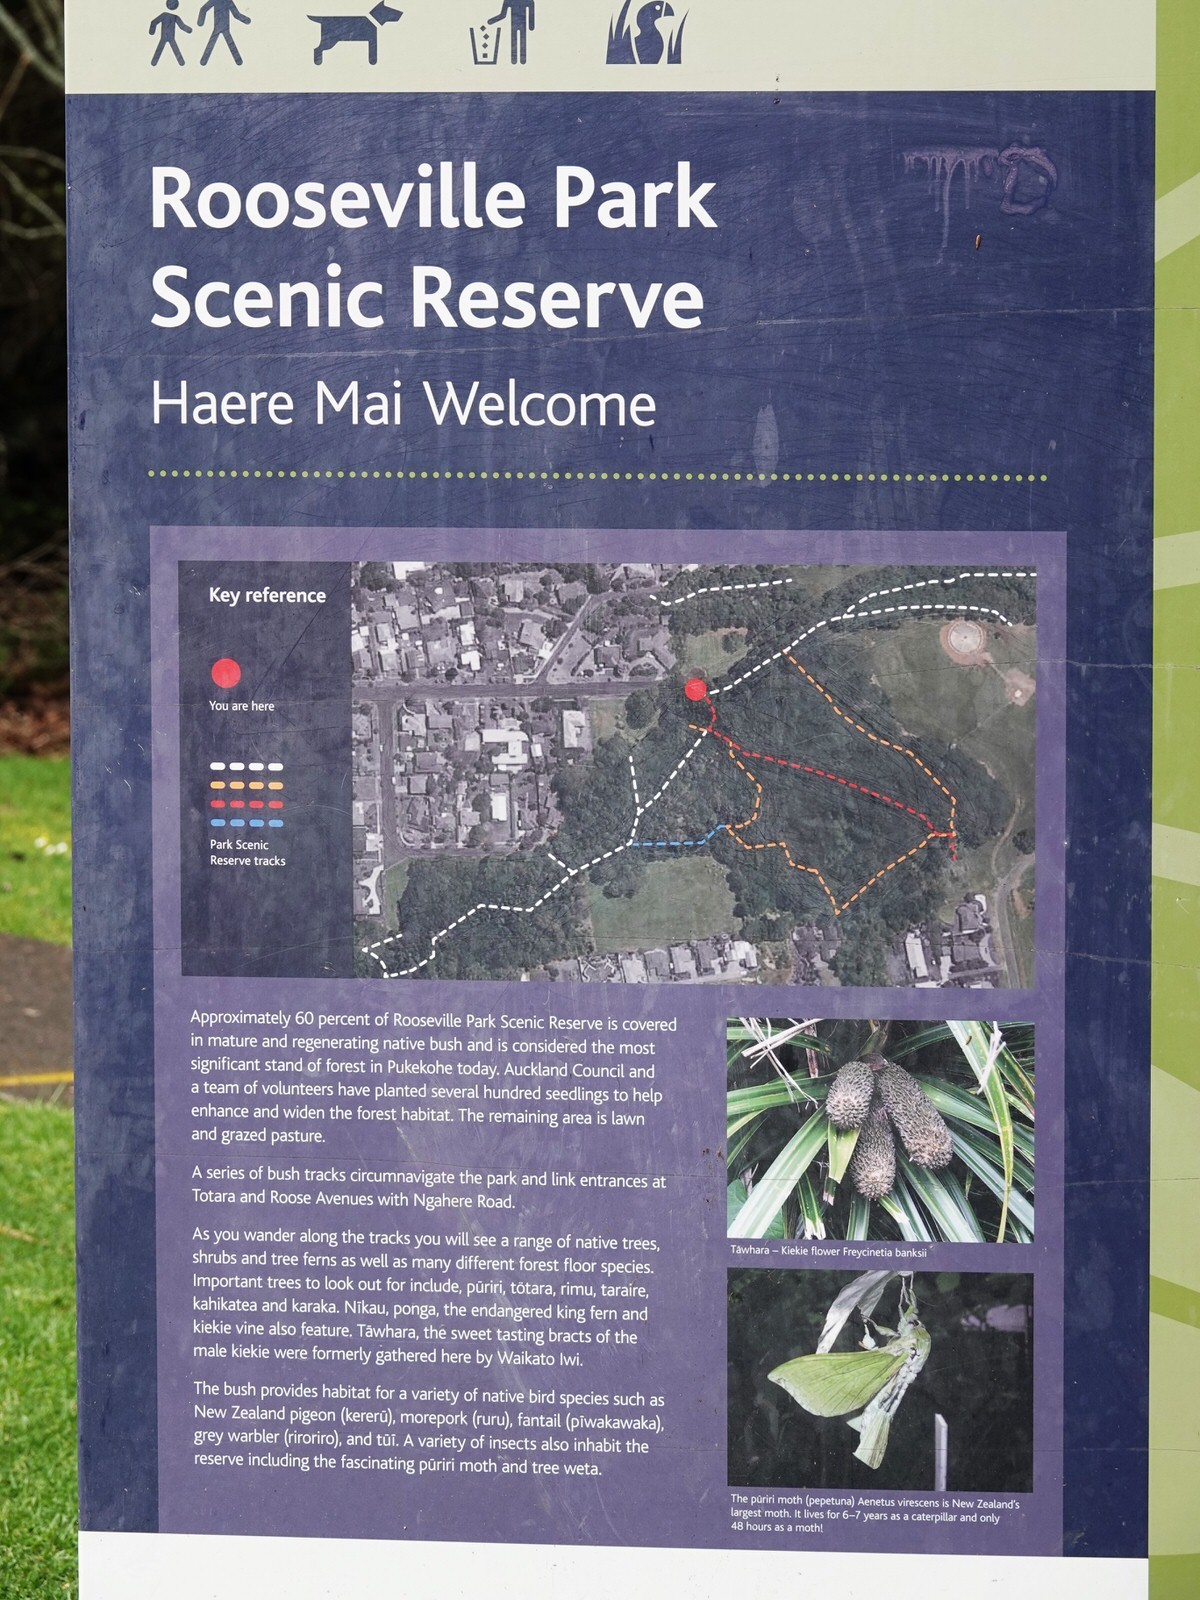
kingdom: Plantae
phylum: Tracheophyta
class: Magnoliopsida
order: Lamiales
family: Lamiaceae
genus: Vitex
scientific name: Vitex lucens
